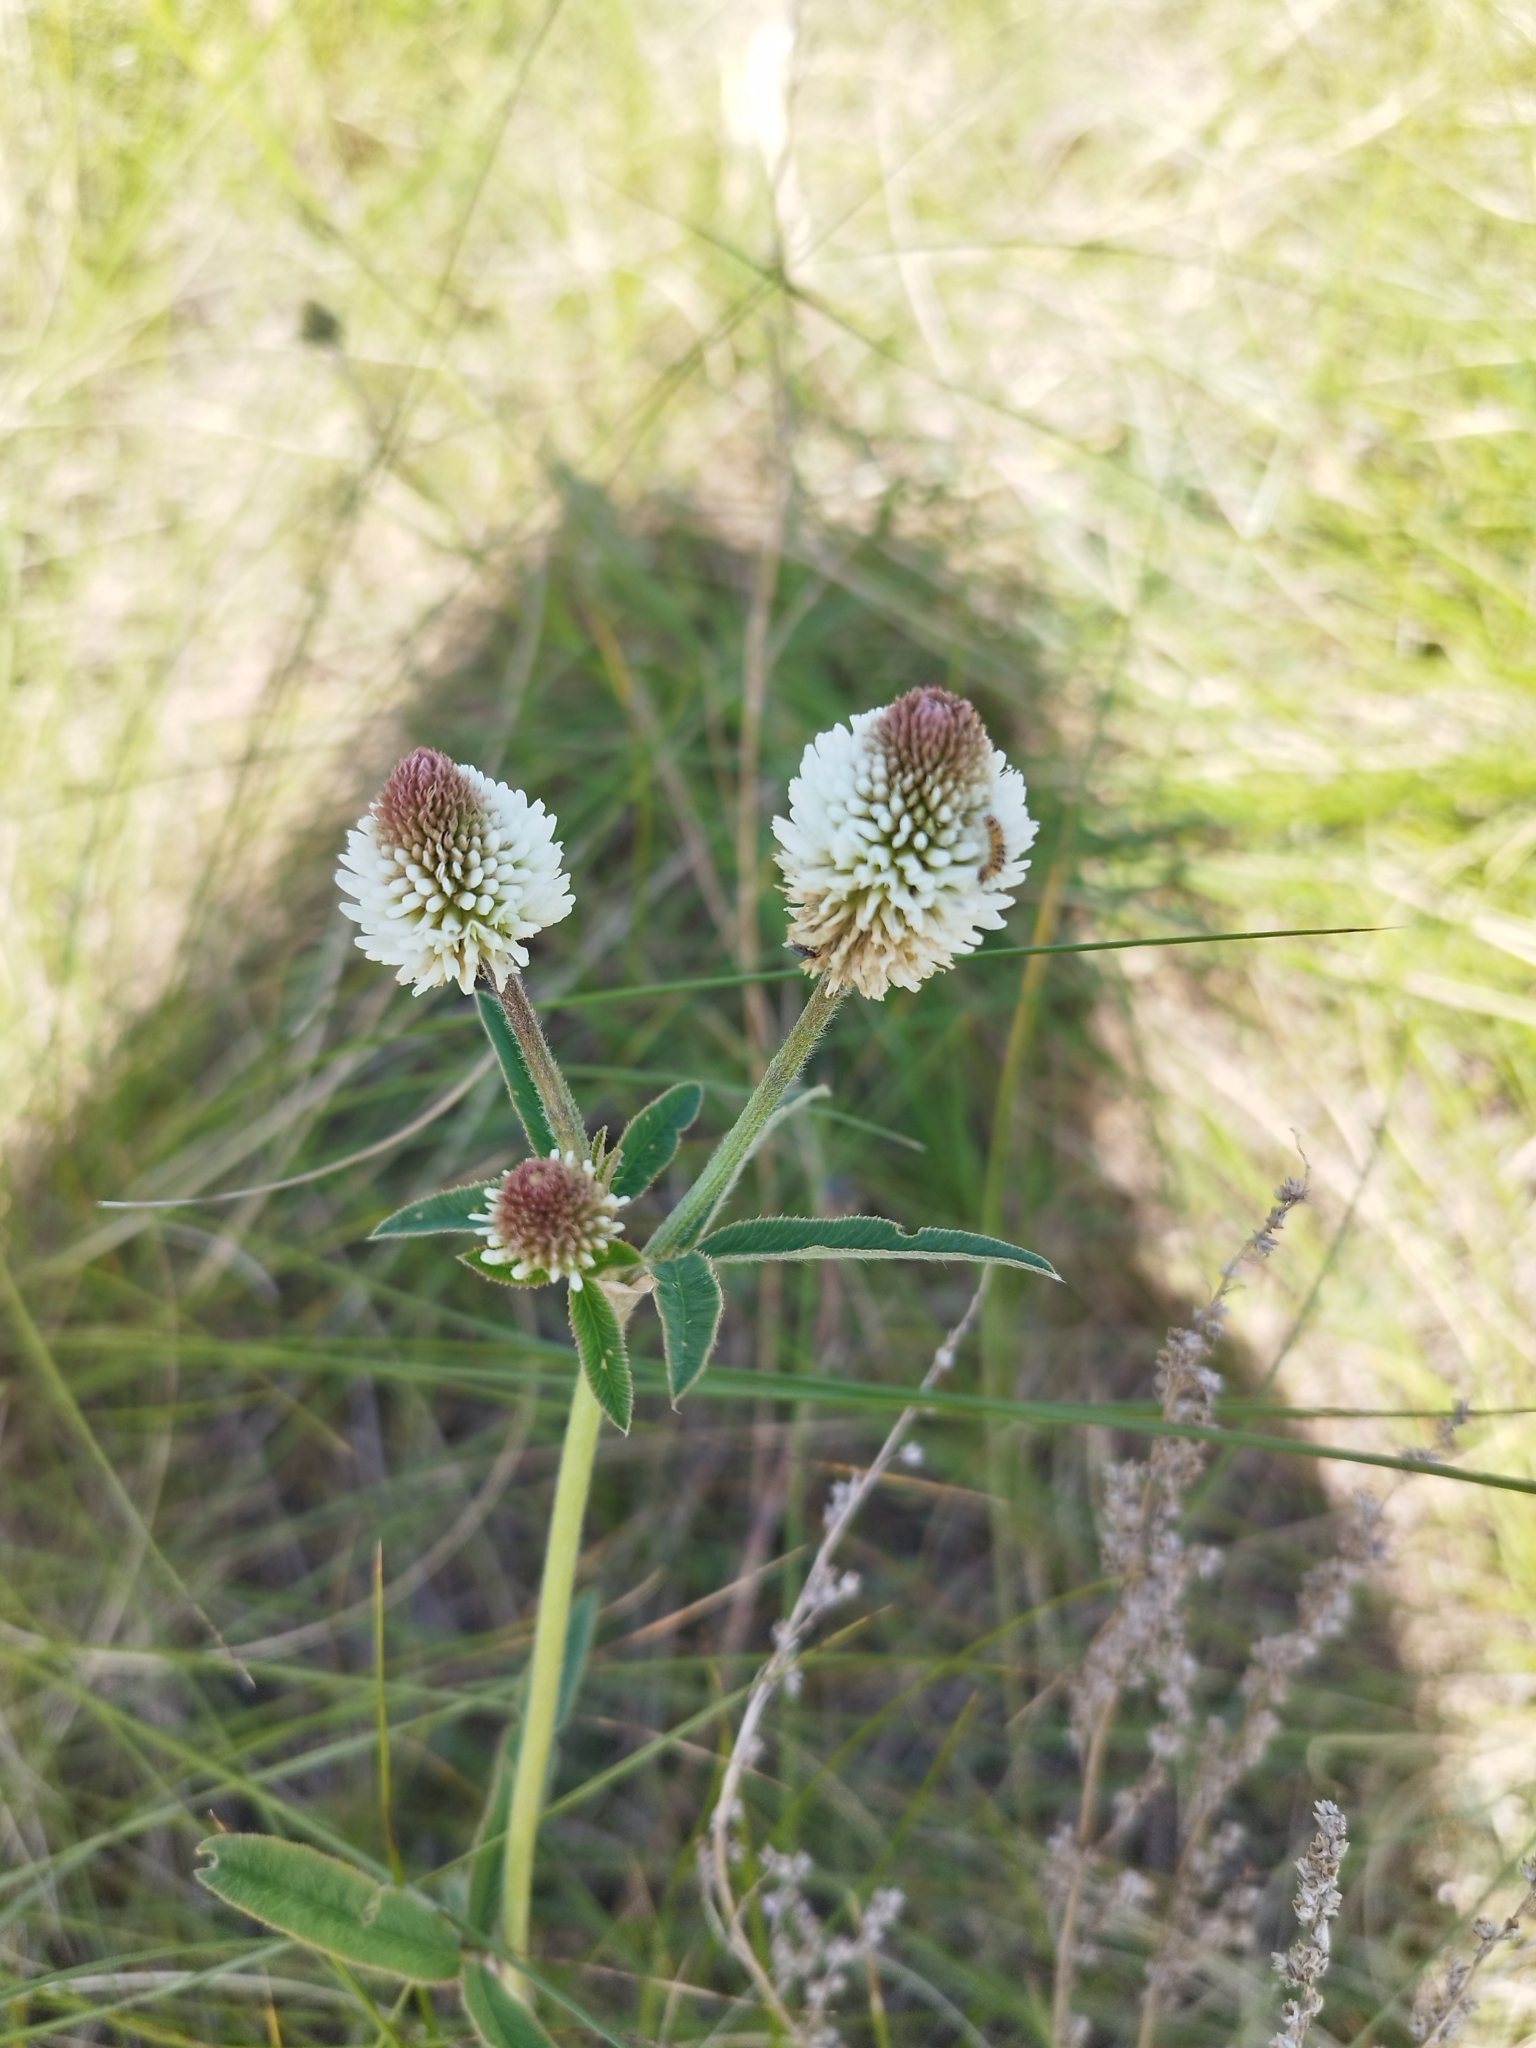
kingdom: Plantae
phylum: Tracheophyta
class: Magnoliopsida
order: Fabales
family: Fabaceae
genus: Trifolium
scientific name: Trifolium montanum
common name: Mountain clover
